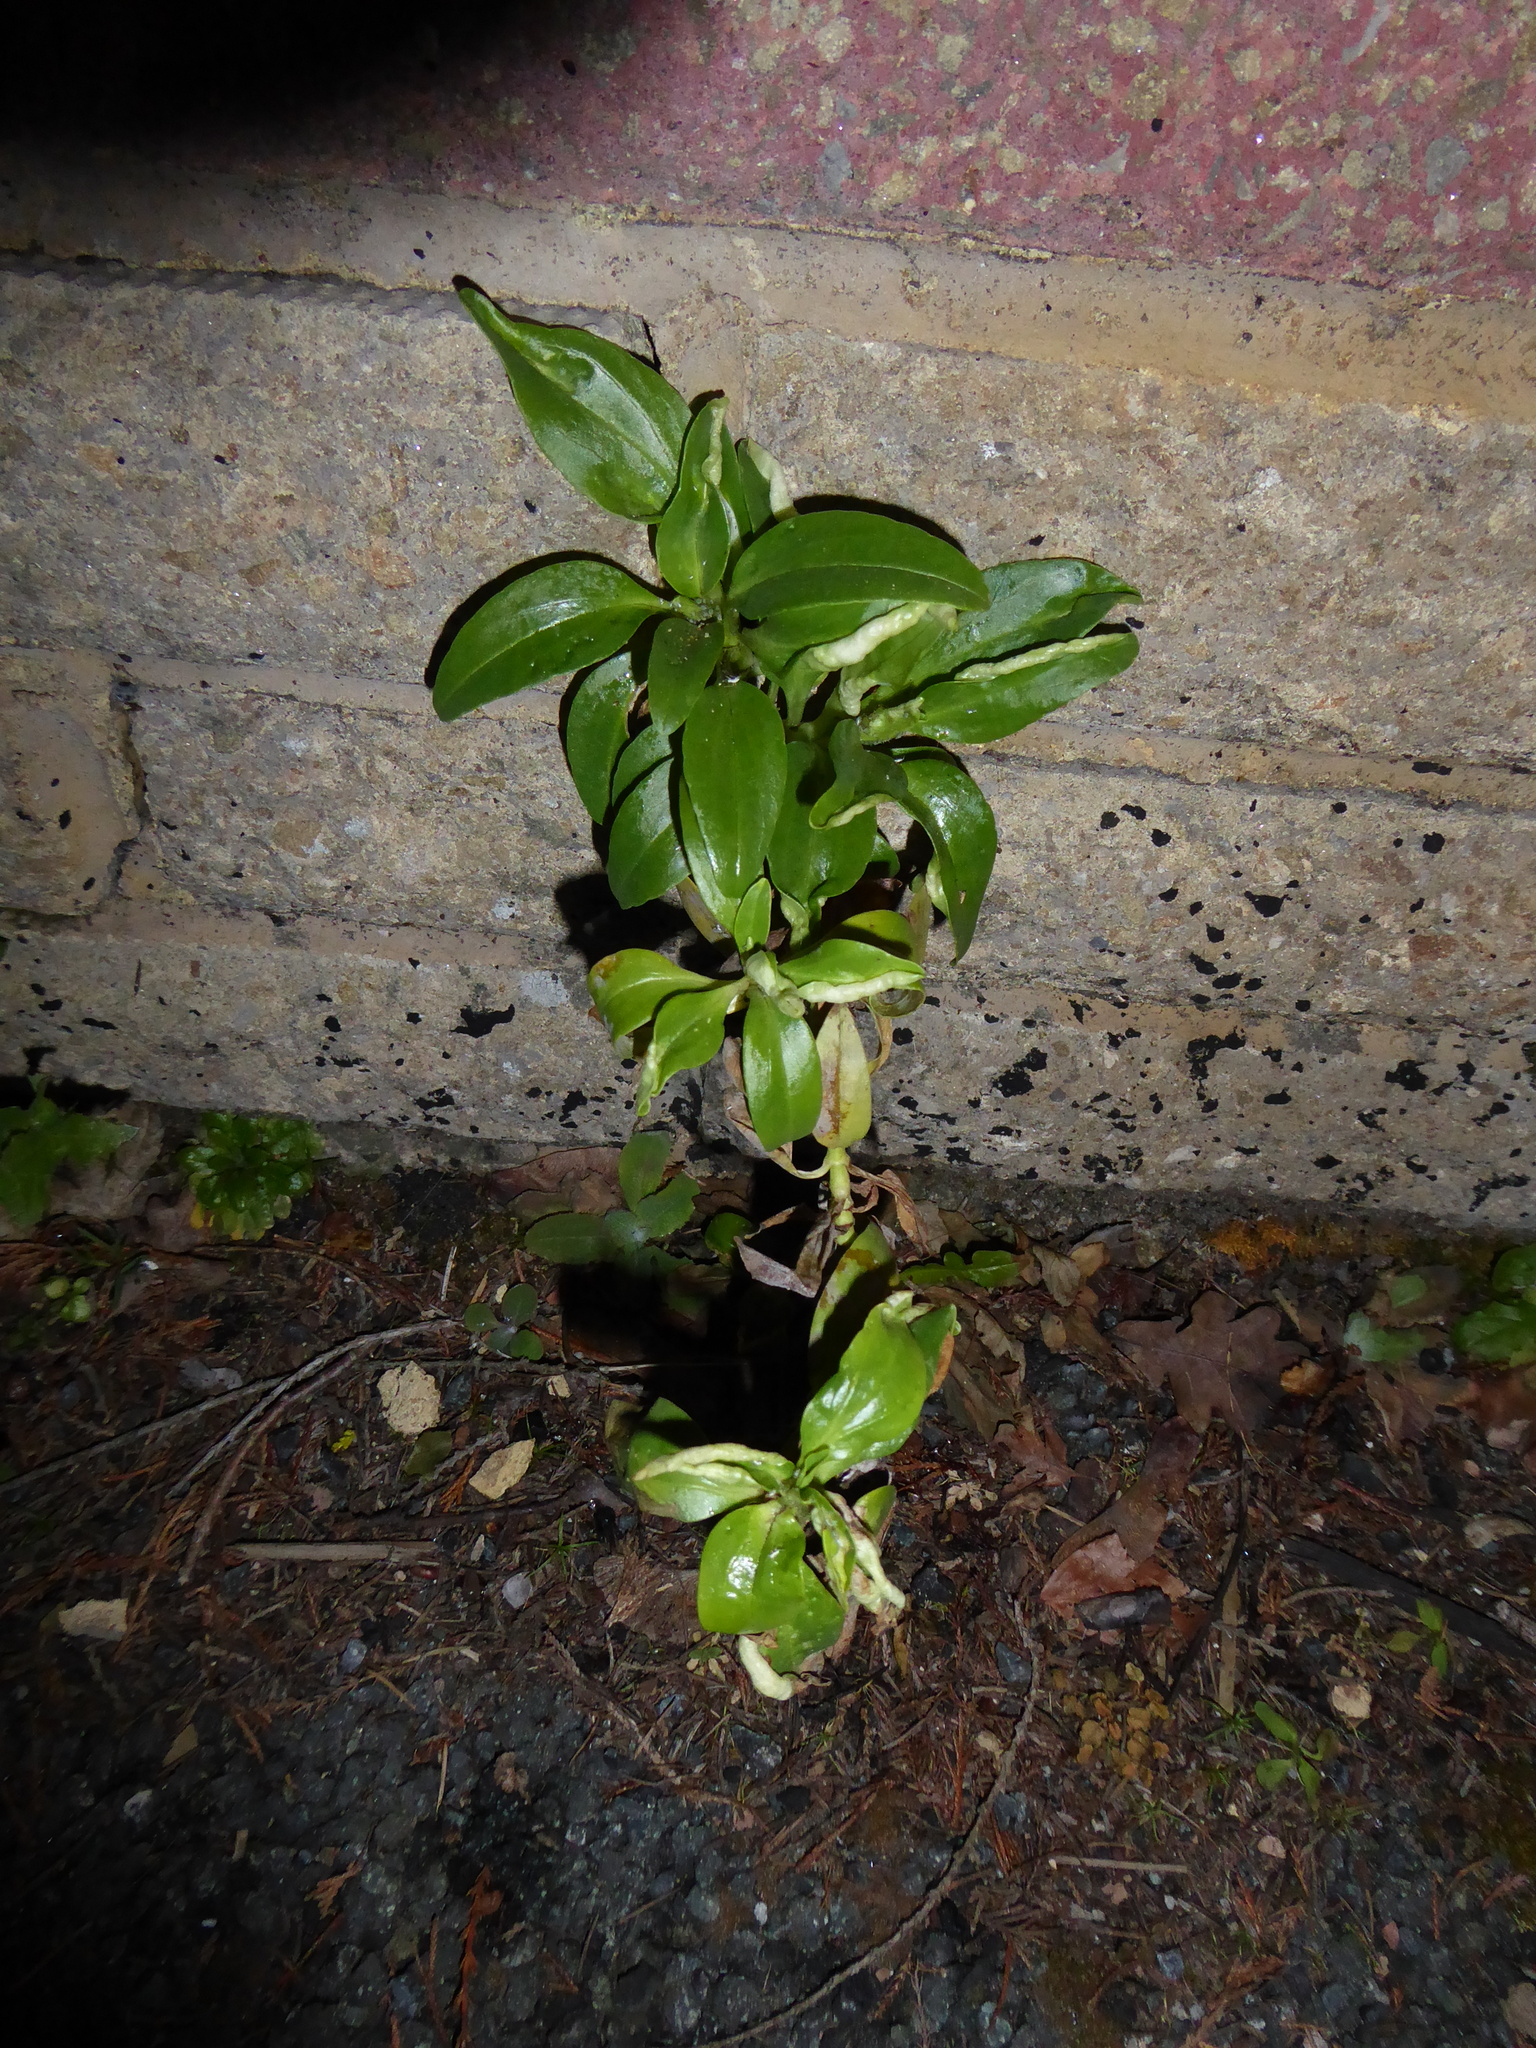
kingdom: Plantae
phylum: Tracheophyta
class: Magnoliopsida
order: Dipsacales
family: Caprifoliaceae
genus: Centranthus
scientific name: Centranthus ruber
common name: Red valerian
